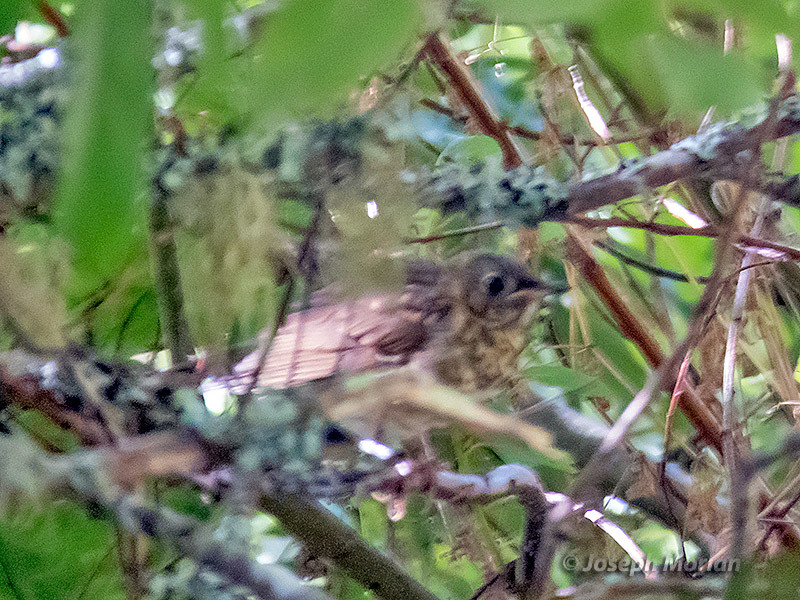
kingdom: Animalia
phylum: Chordata
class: Aves
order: Passeriformes
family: Turdidae
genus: Catharus
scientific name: Catharus ustulatus
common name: Swainson's thrush
